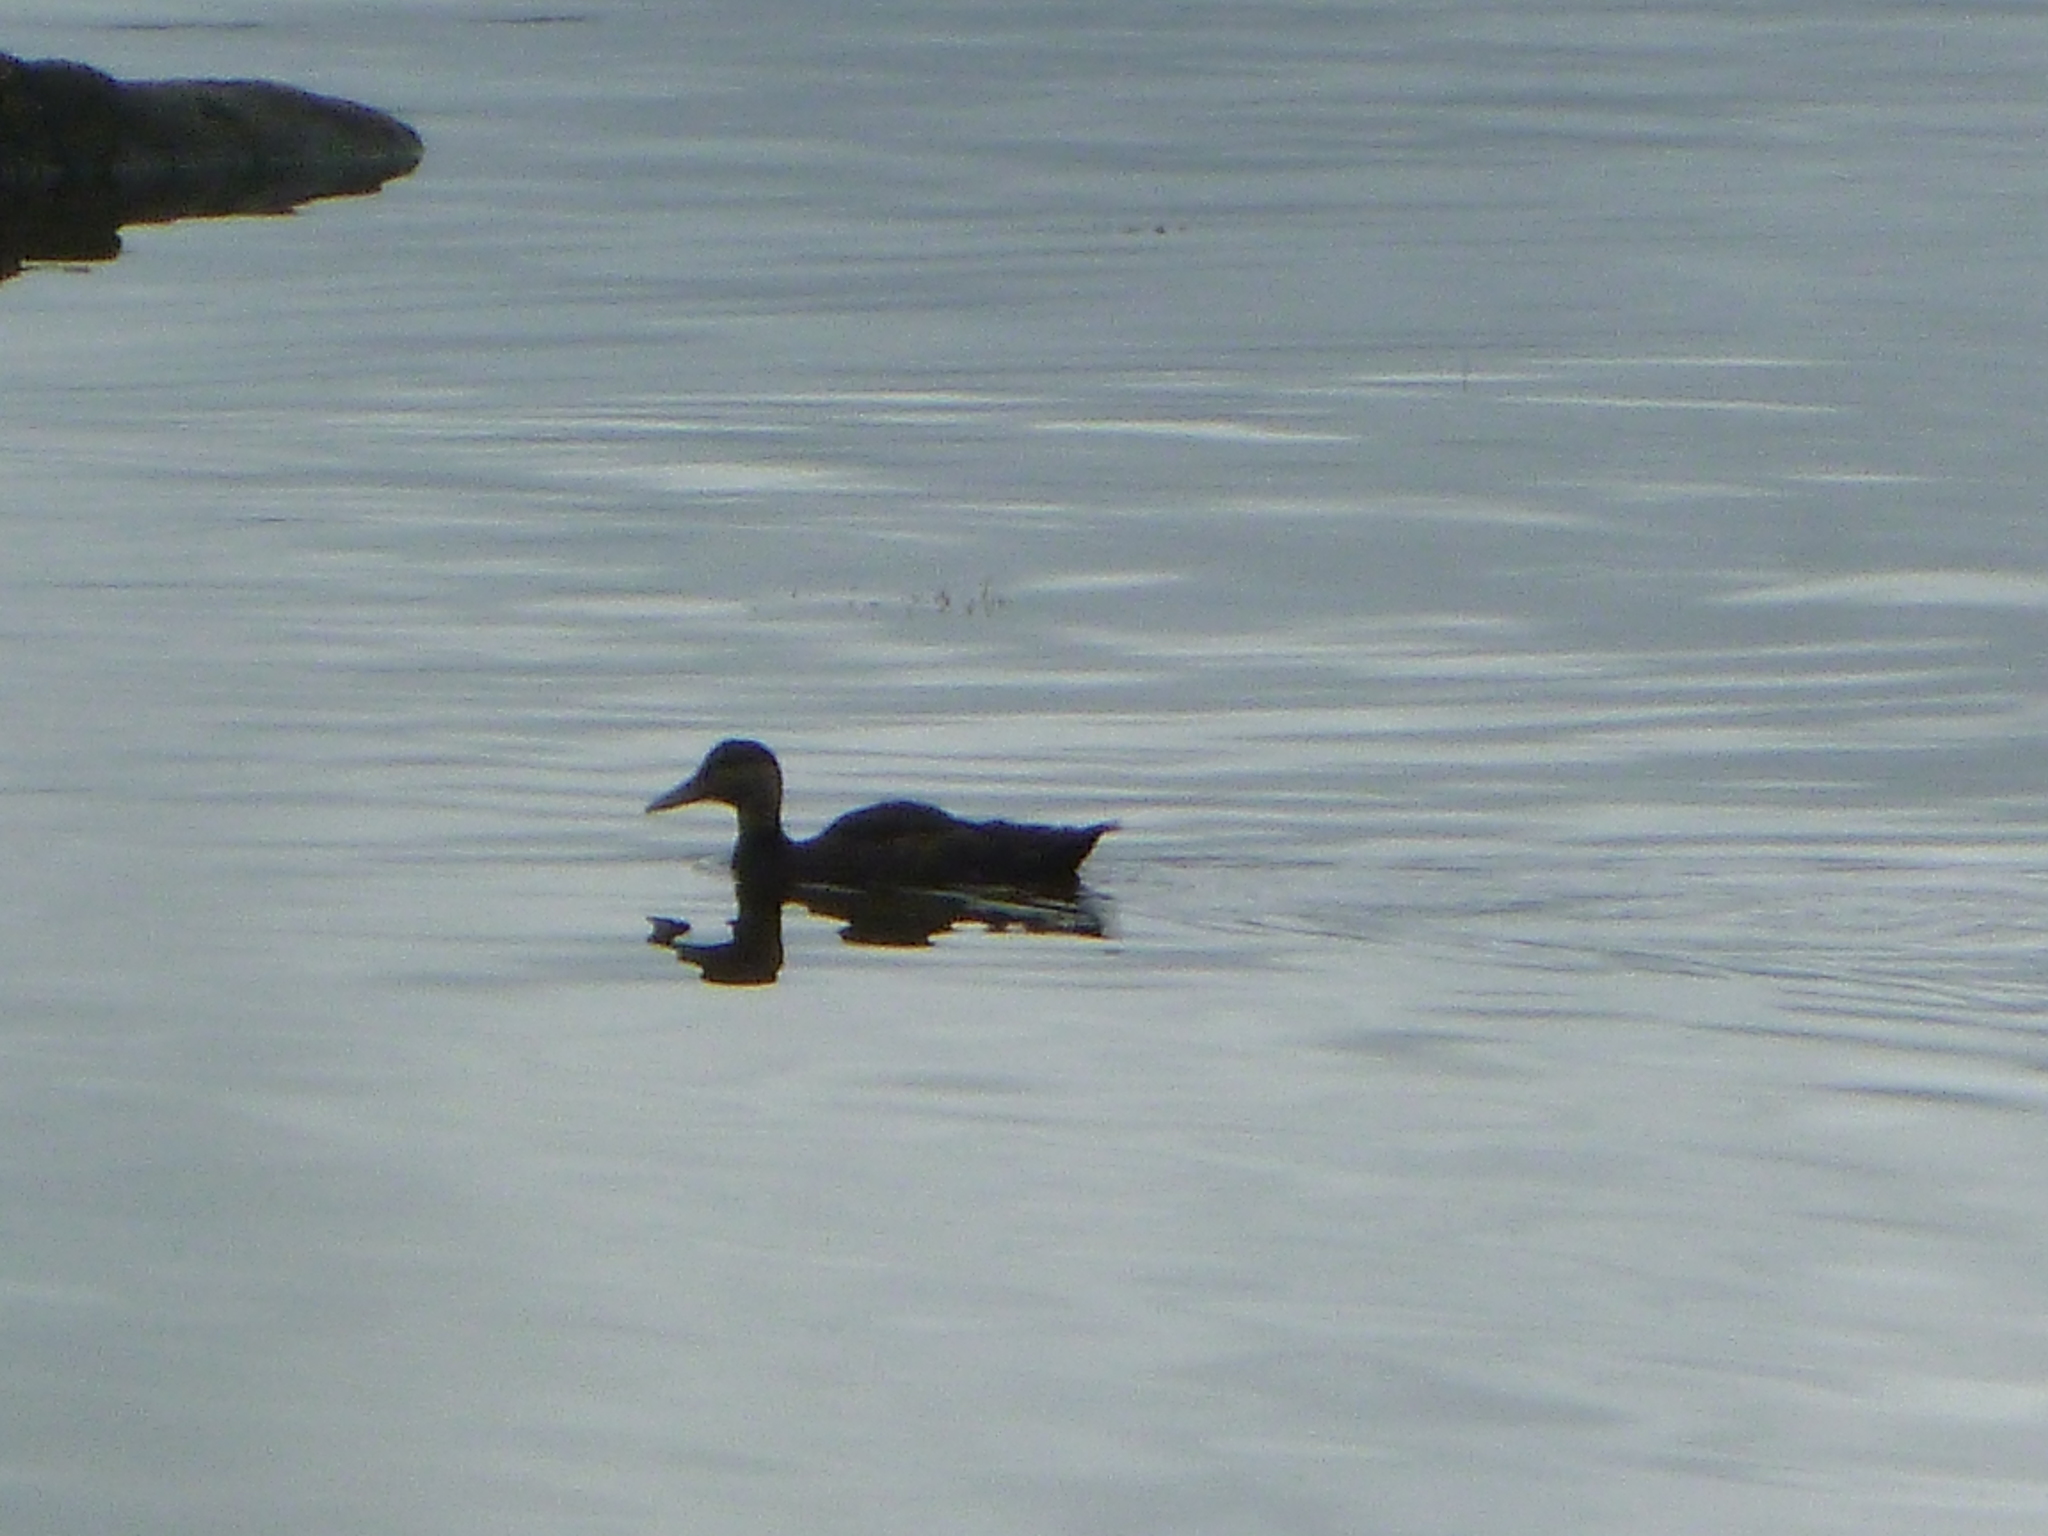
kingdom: Animalia
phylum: Chordata
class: Aves
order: Anseriformes
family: Anatidae
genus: Anas
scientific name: Anas rubripes
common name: American black duck
